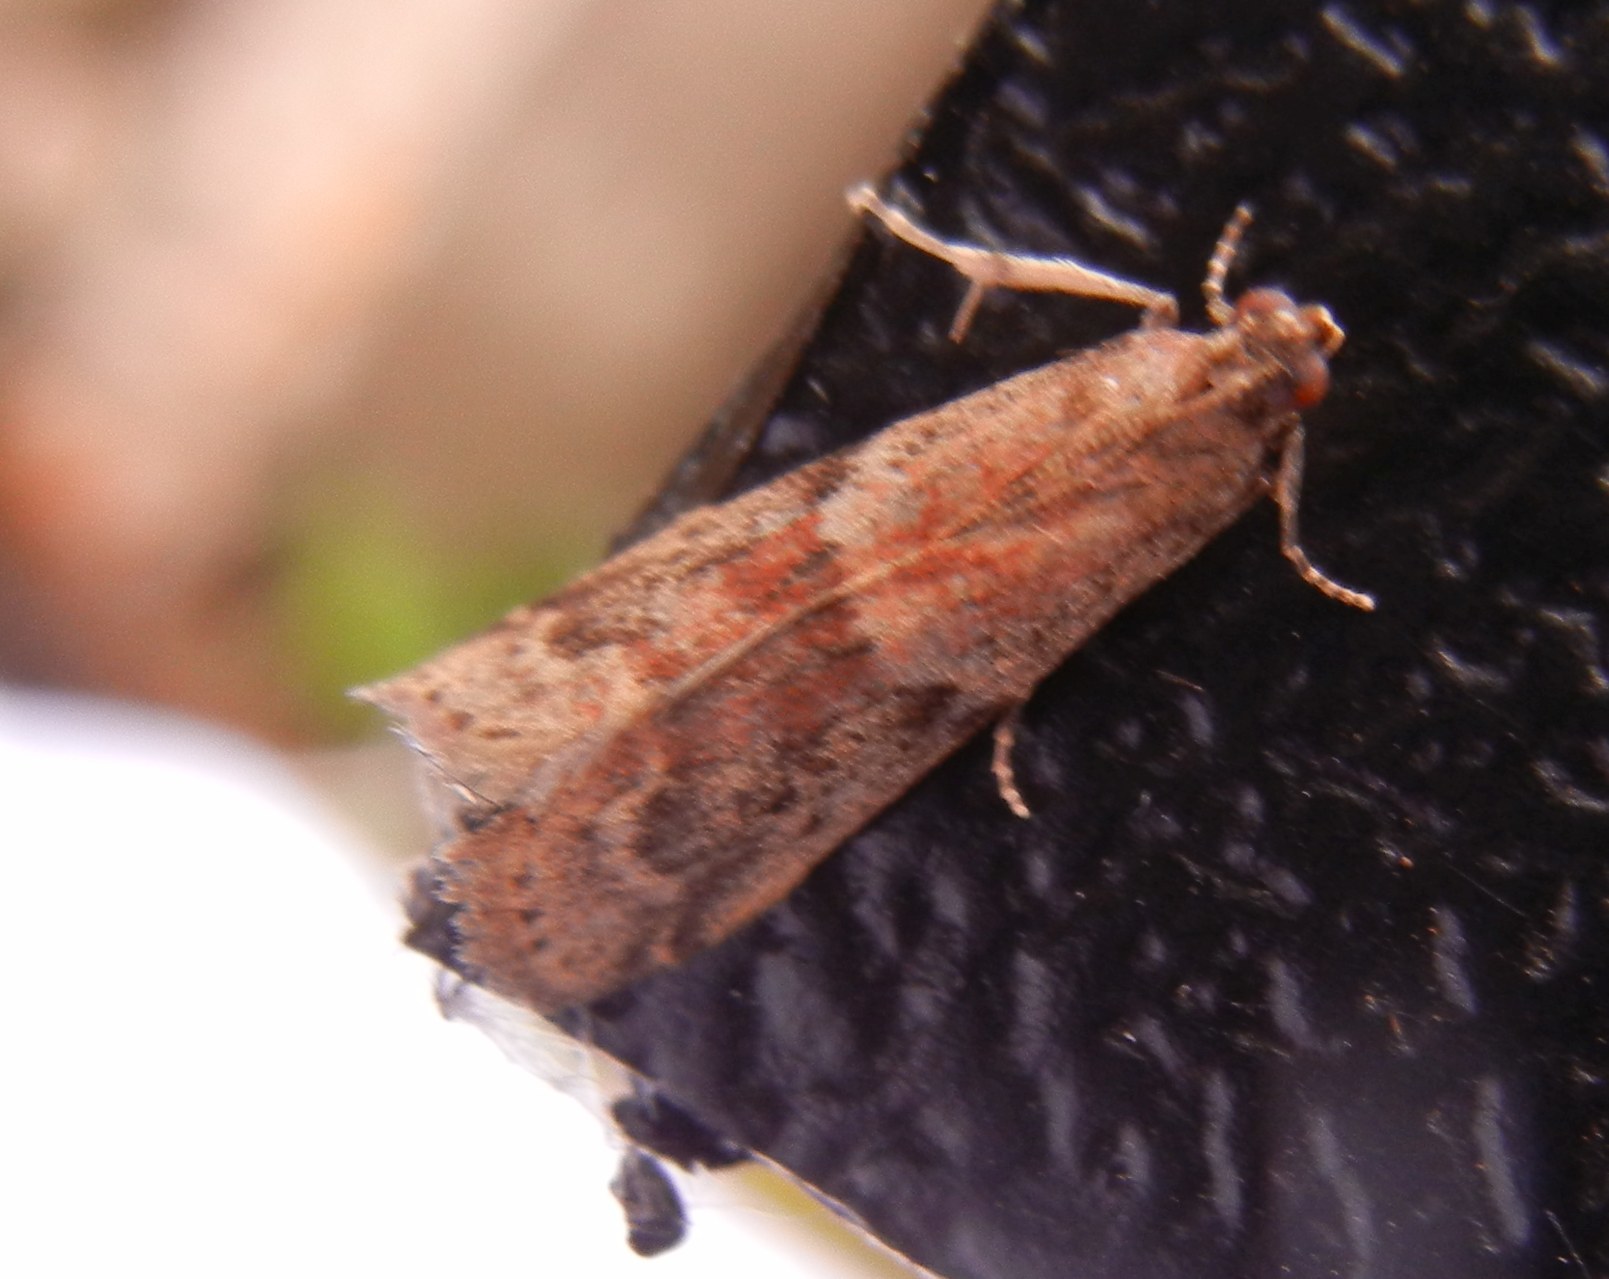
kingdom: Animalia
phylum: Arthropoda
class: Insecta
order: Lepidoptera
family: Pyralidae
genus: Ephestia
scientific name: Ephestia woodiella
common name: False cacao moth
